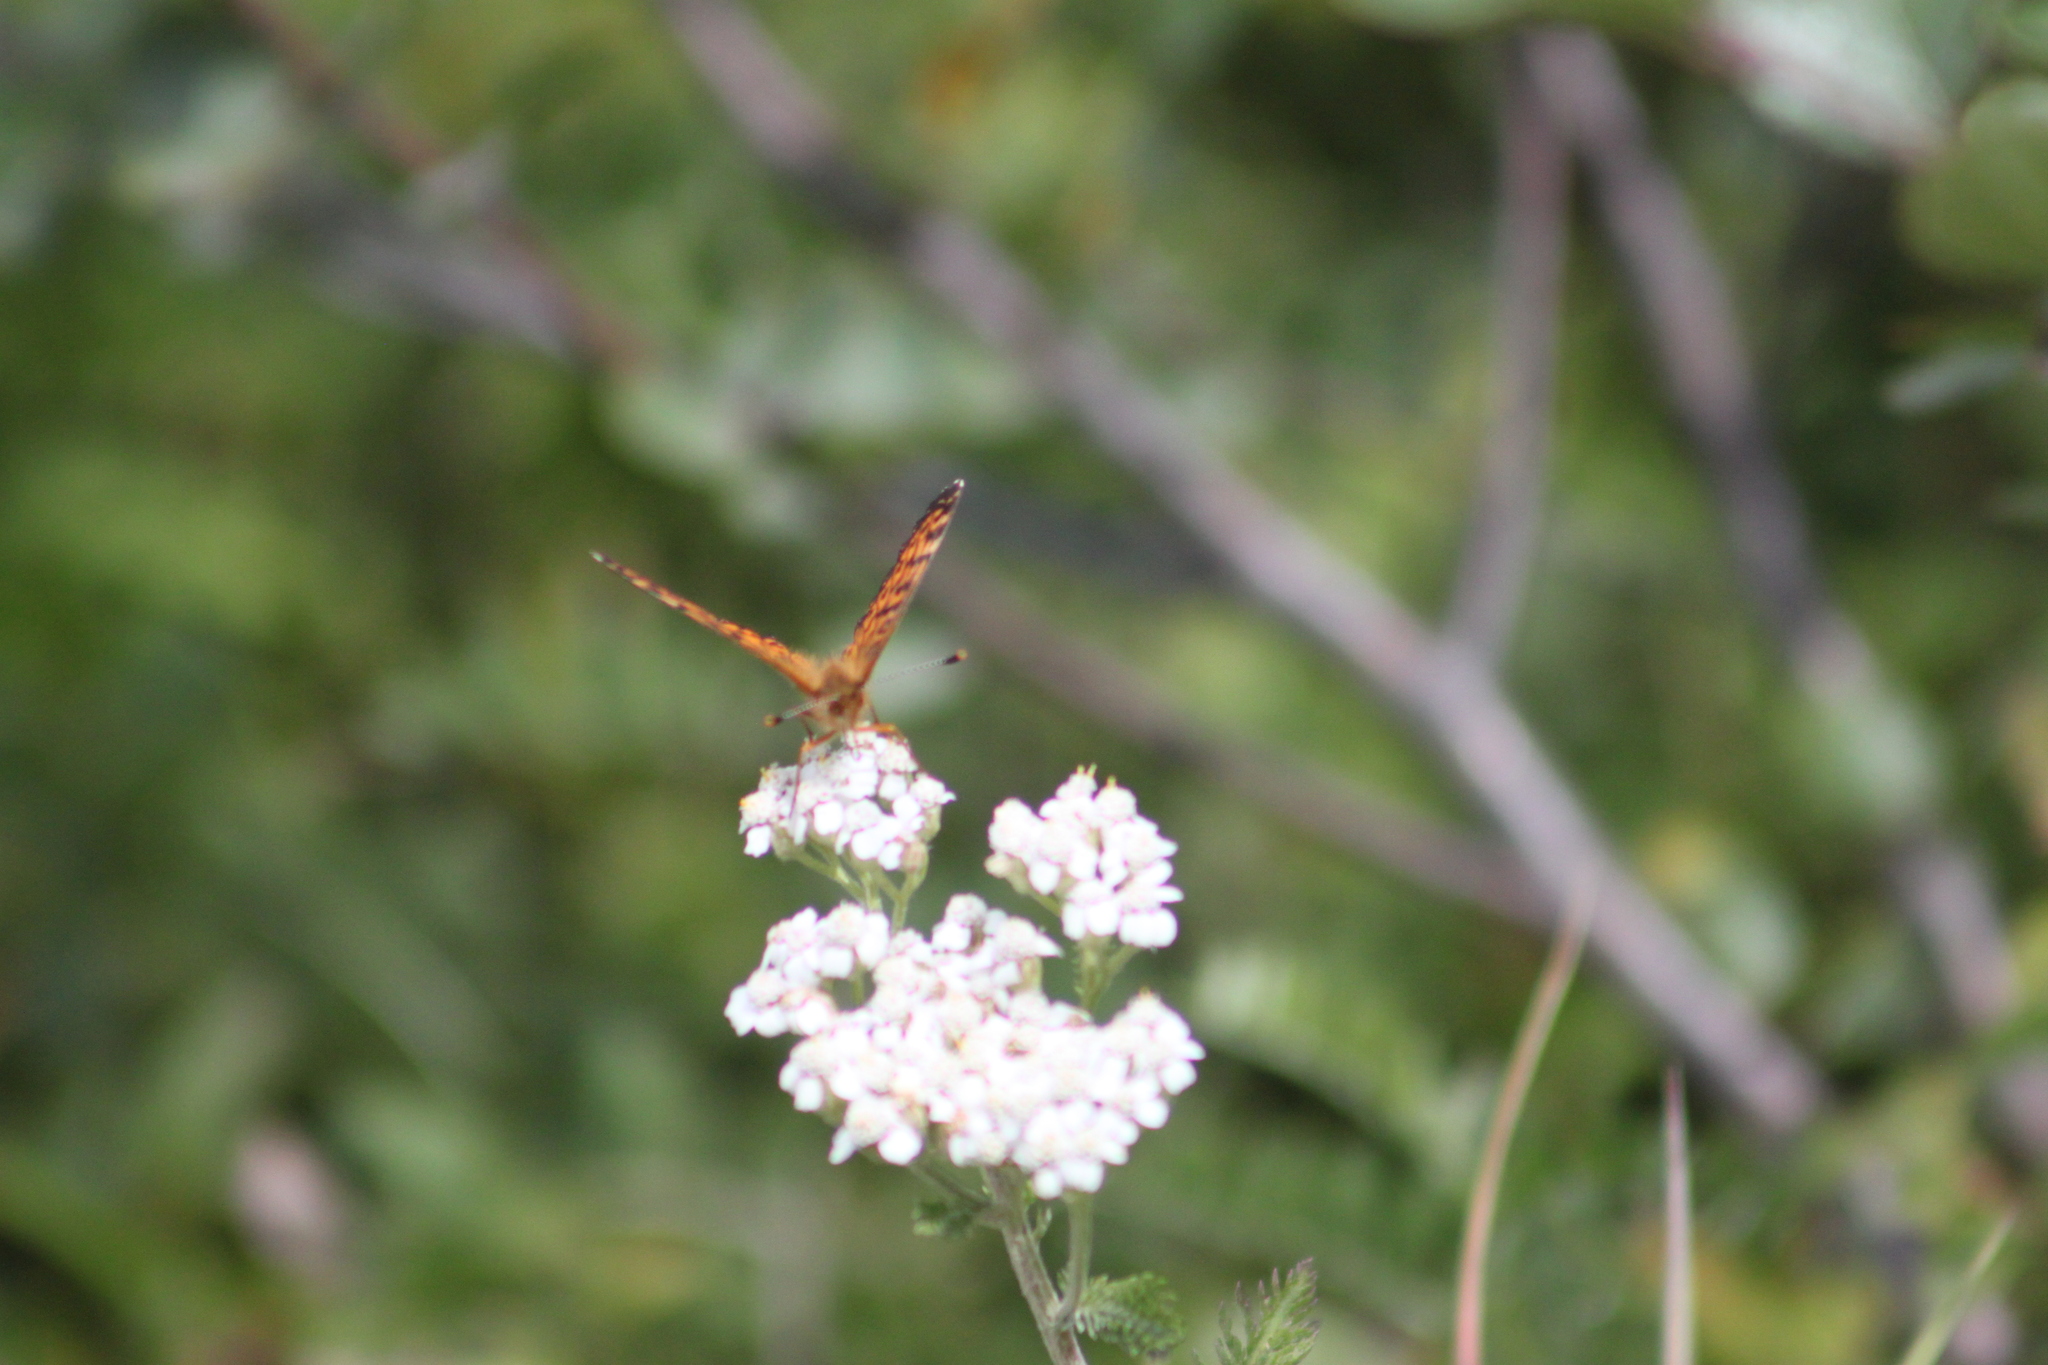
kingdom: Plantae
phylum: Tracheophyta
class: Magnoliopsida
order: Asterales
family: Asteraceae
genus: Achillea
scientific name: Achillea millefolium
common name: Yarrow
